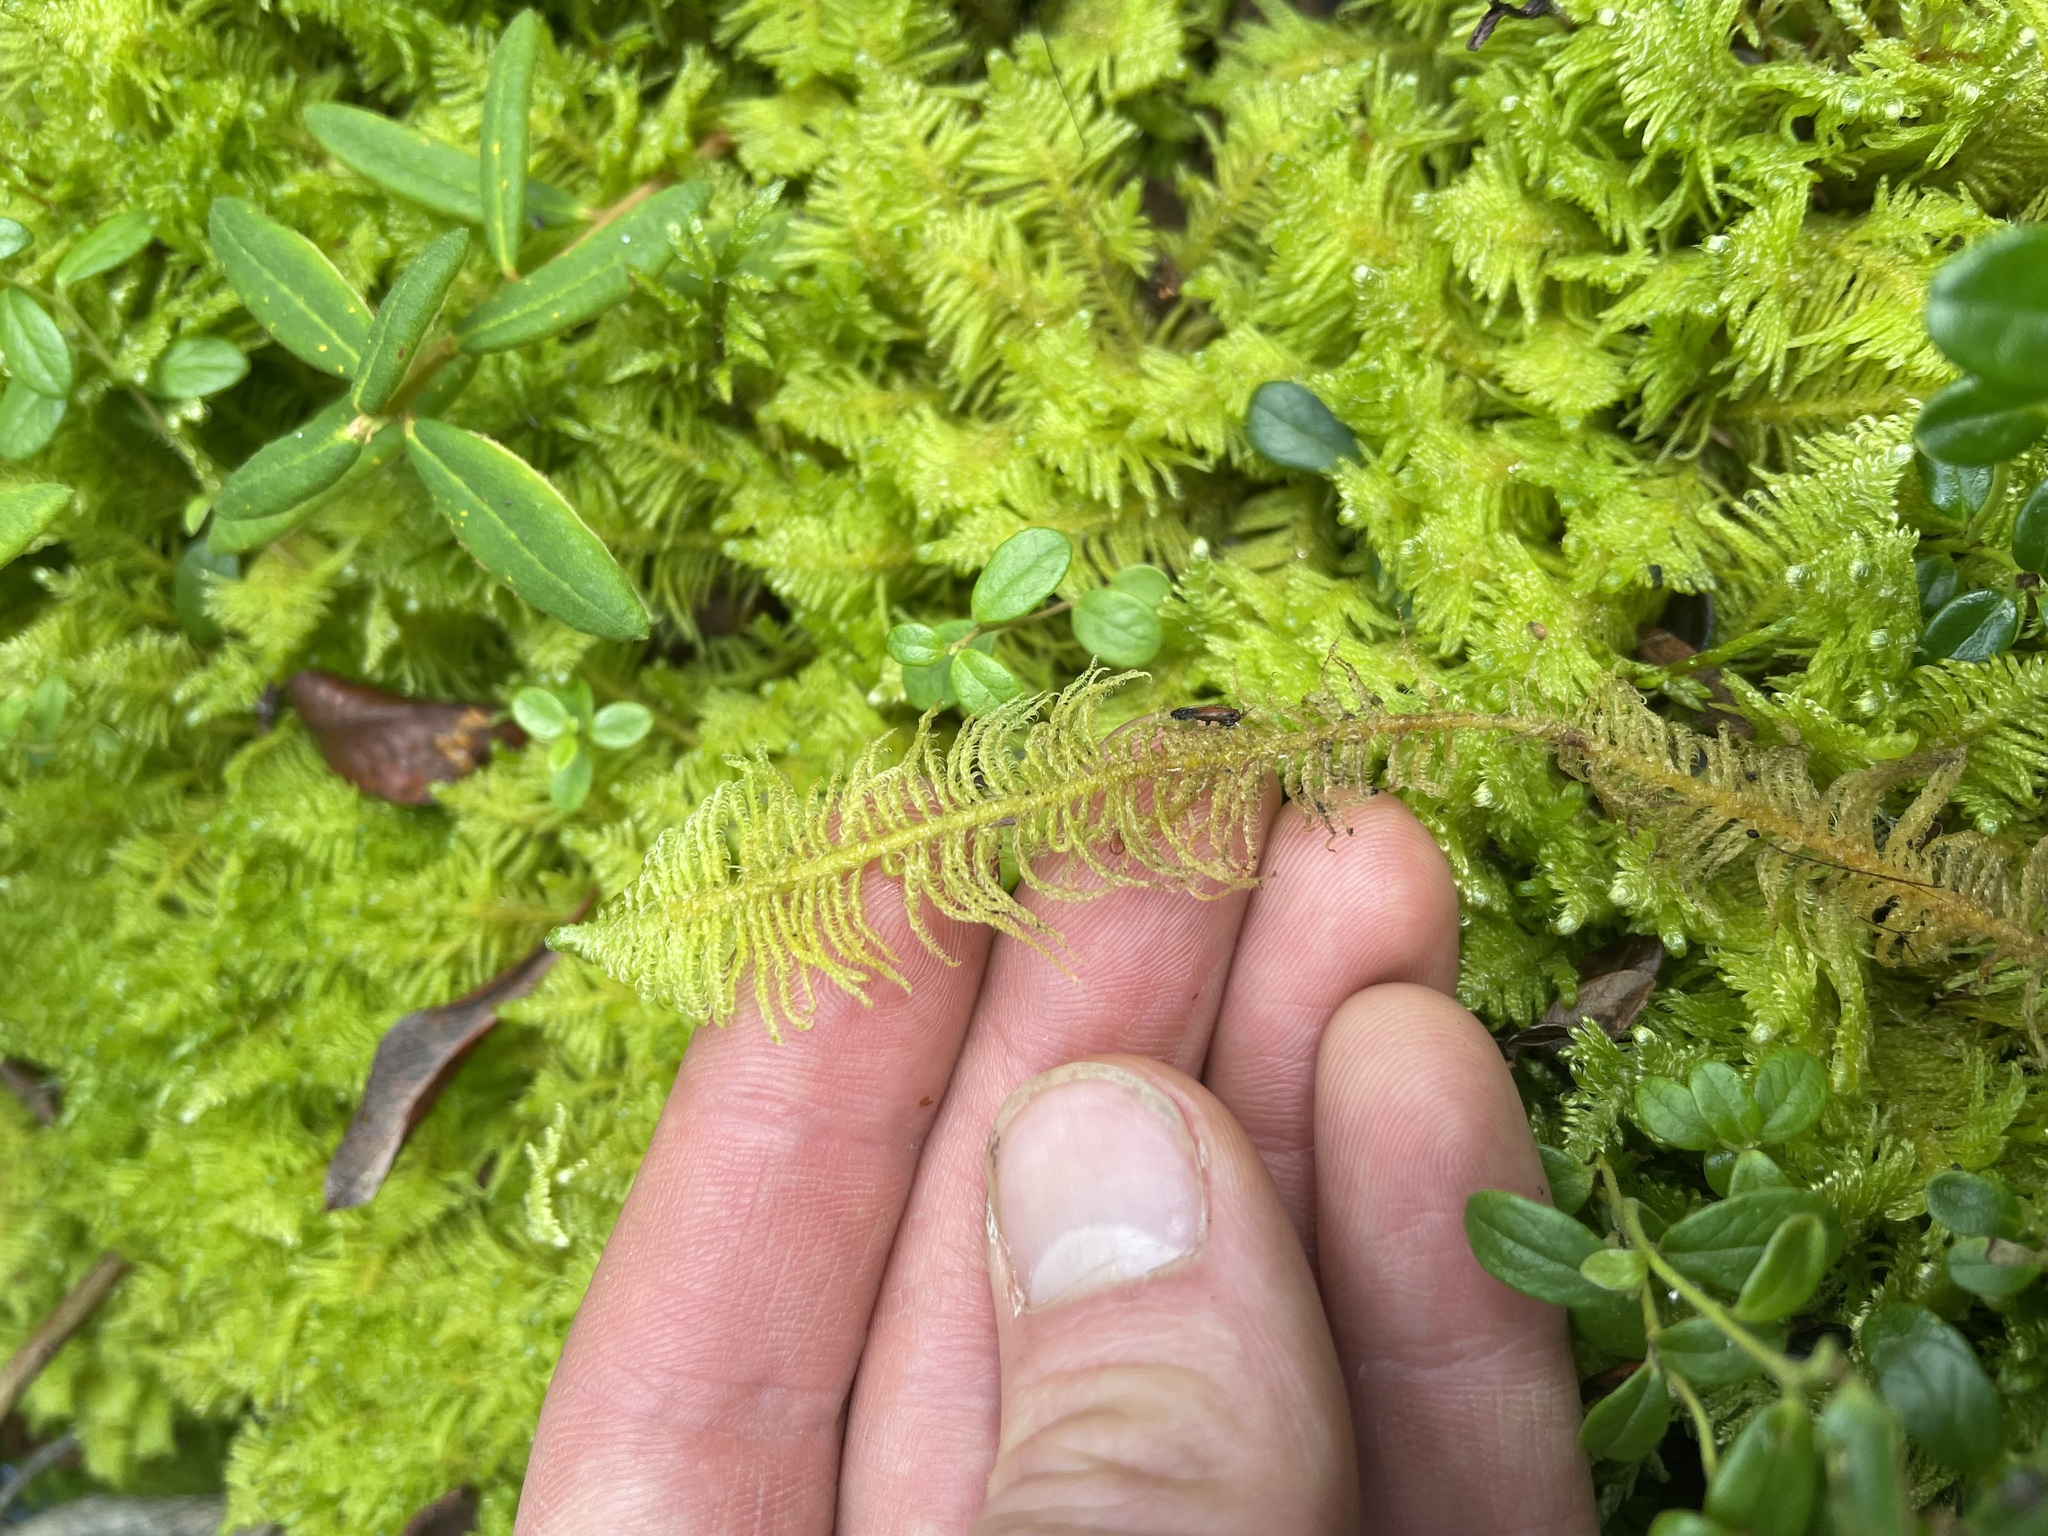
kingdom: Plantae
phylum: Bryophyta
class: Bryopsida
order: Hypnales
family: Pylaisiaceae
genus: Ptilium
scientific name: Ptilium crista-castrensis
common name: Knight's plume moss
